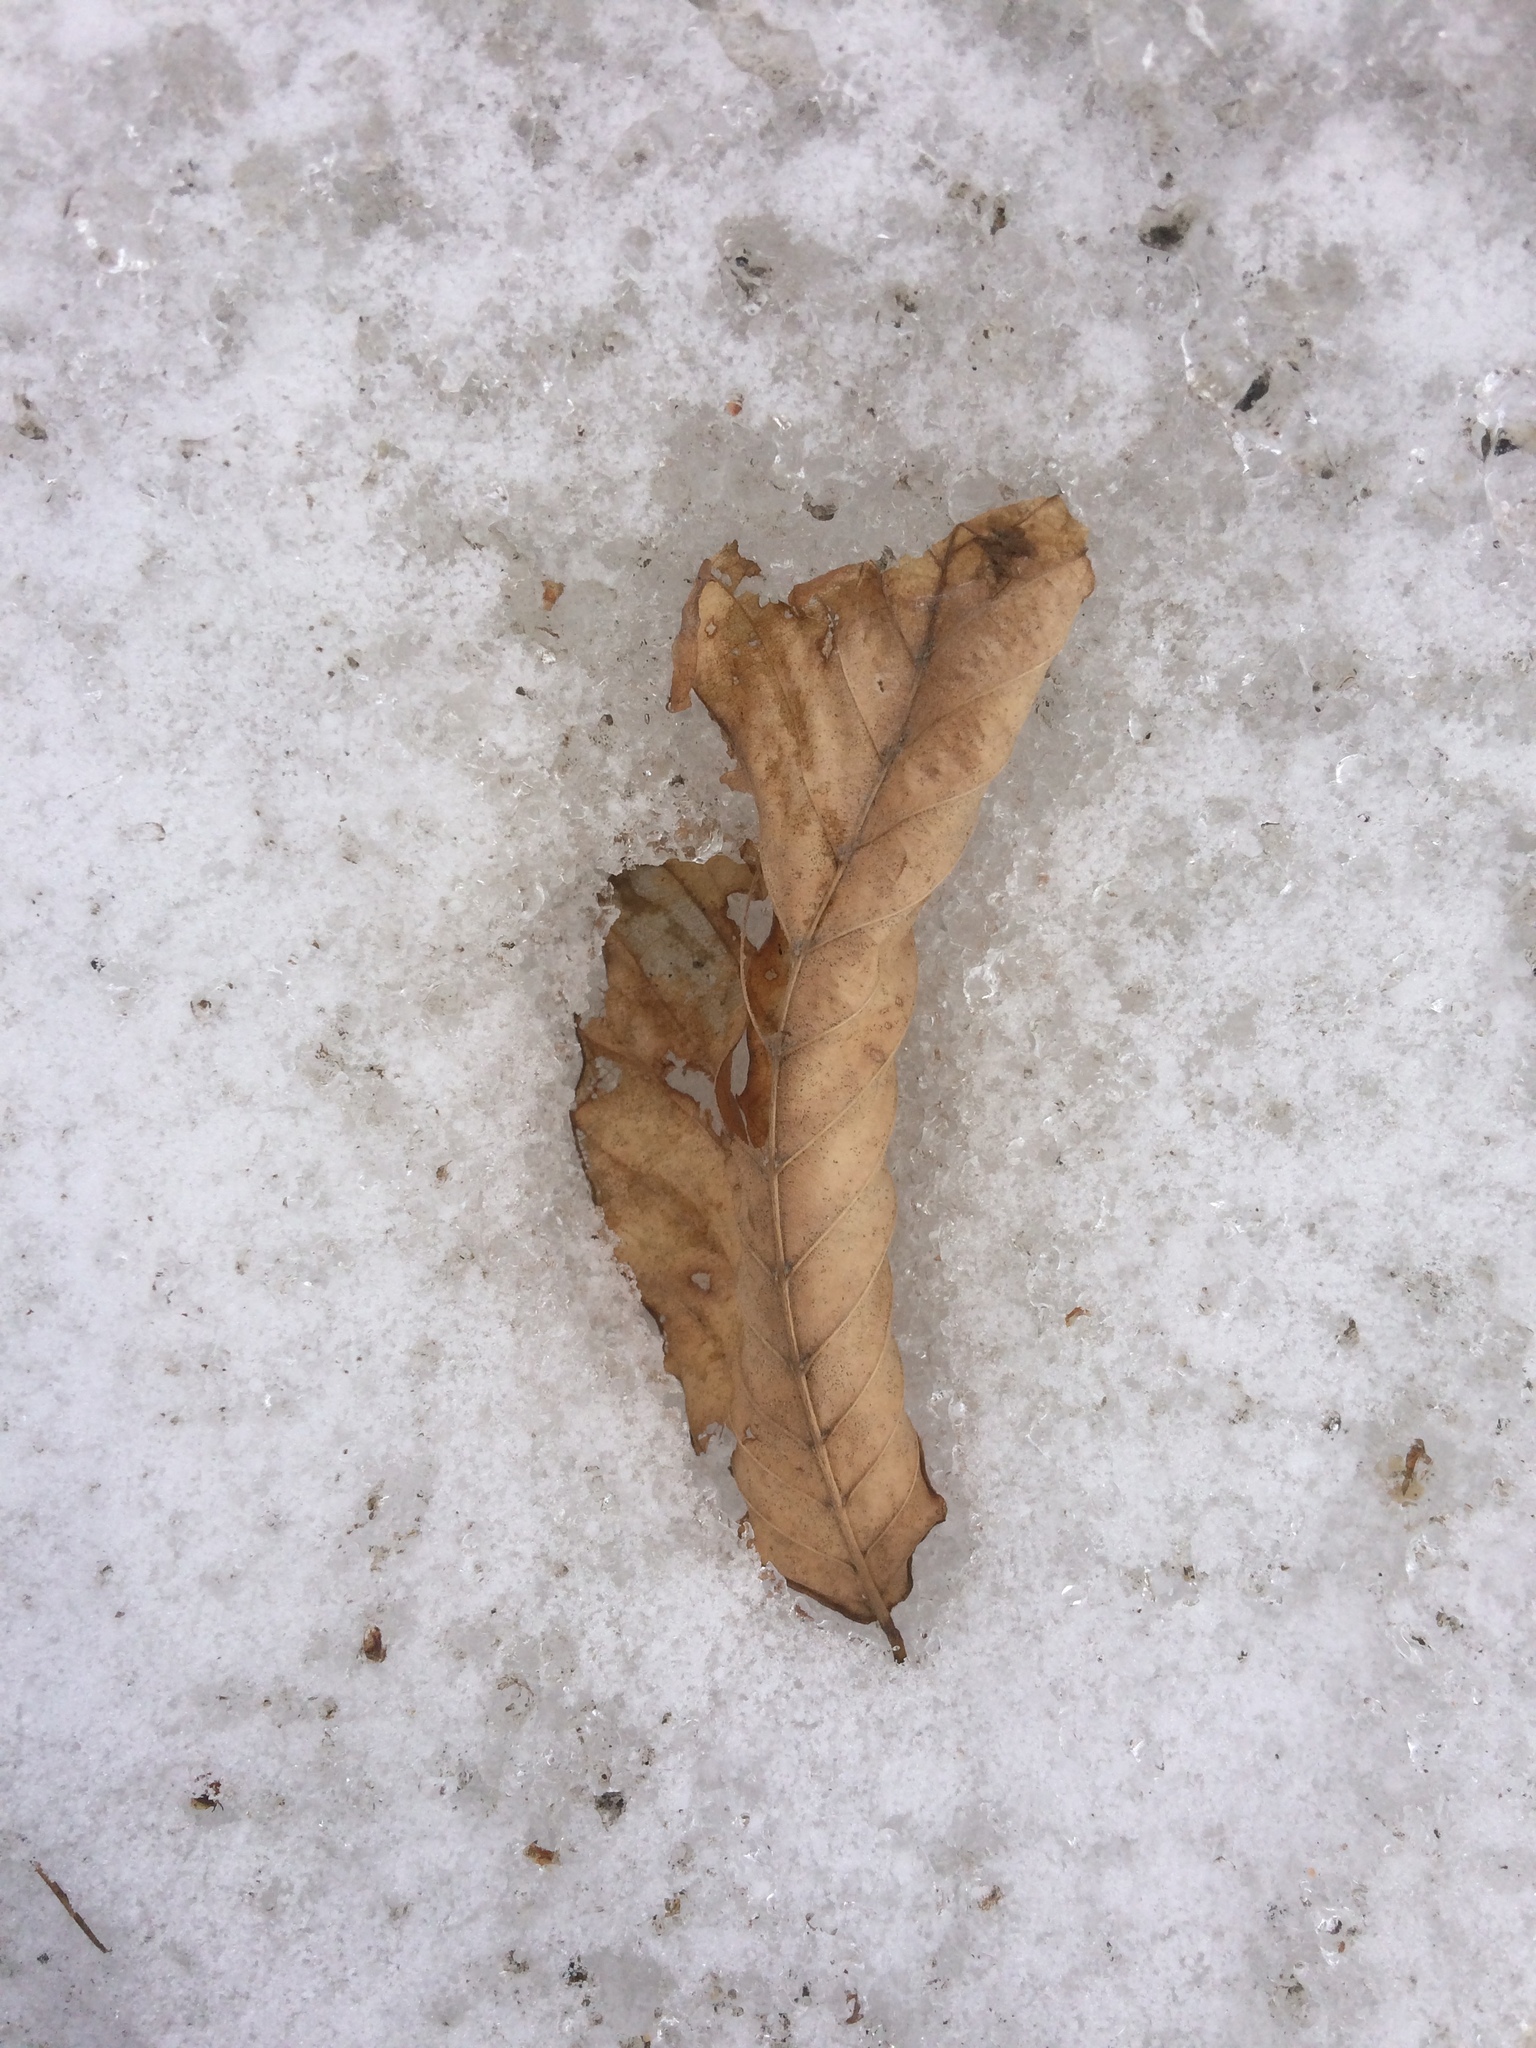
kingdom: Plantae
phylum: Tracheophyta
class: Magnoliopsida
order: Fagales
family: Fagaceae
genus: Fagus
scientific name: Fagus grandifolia
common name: American beech
